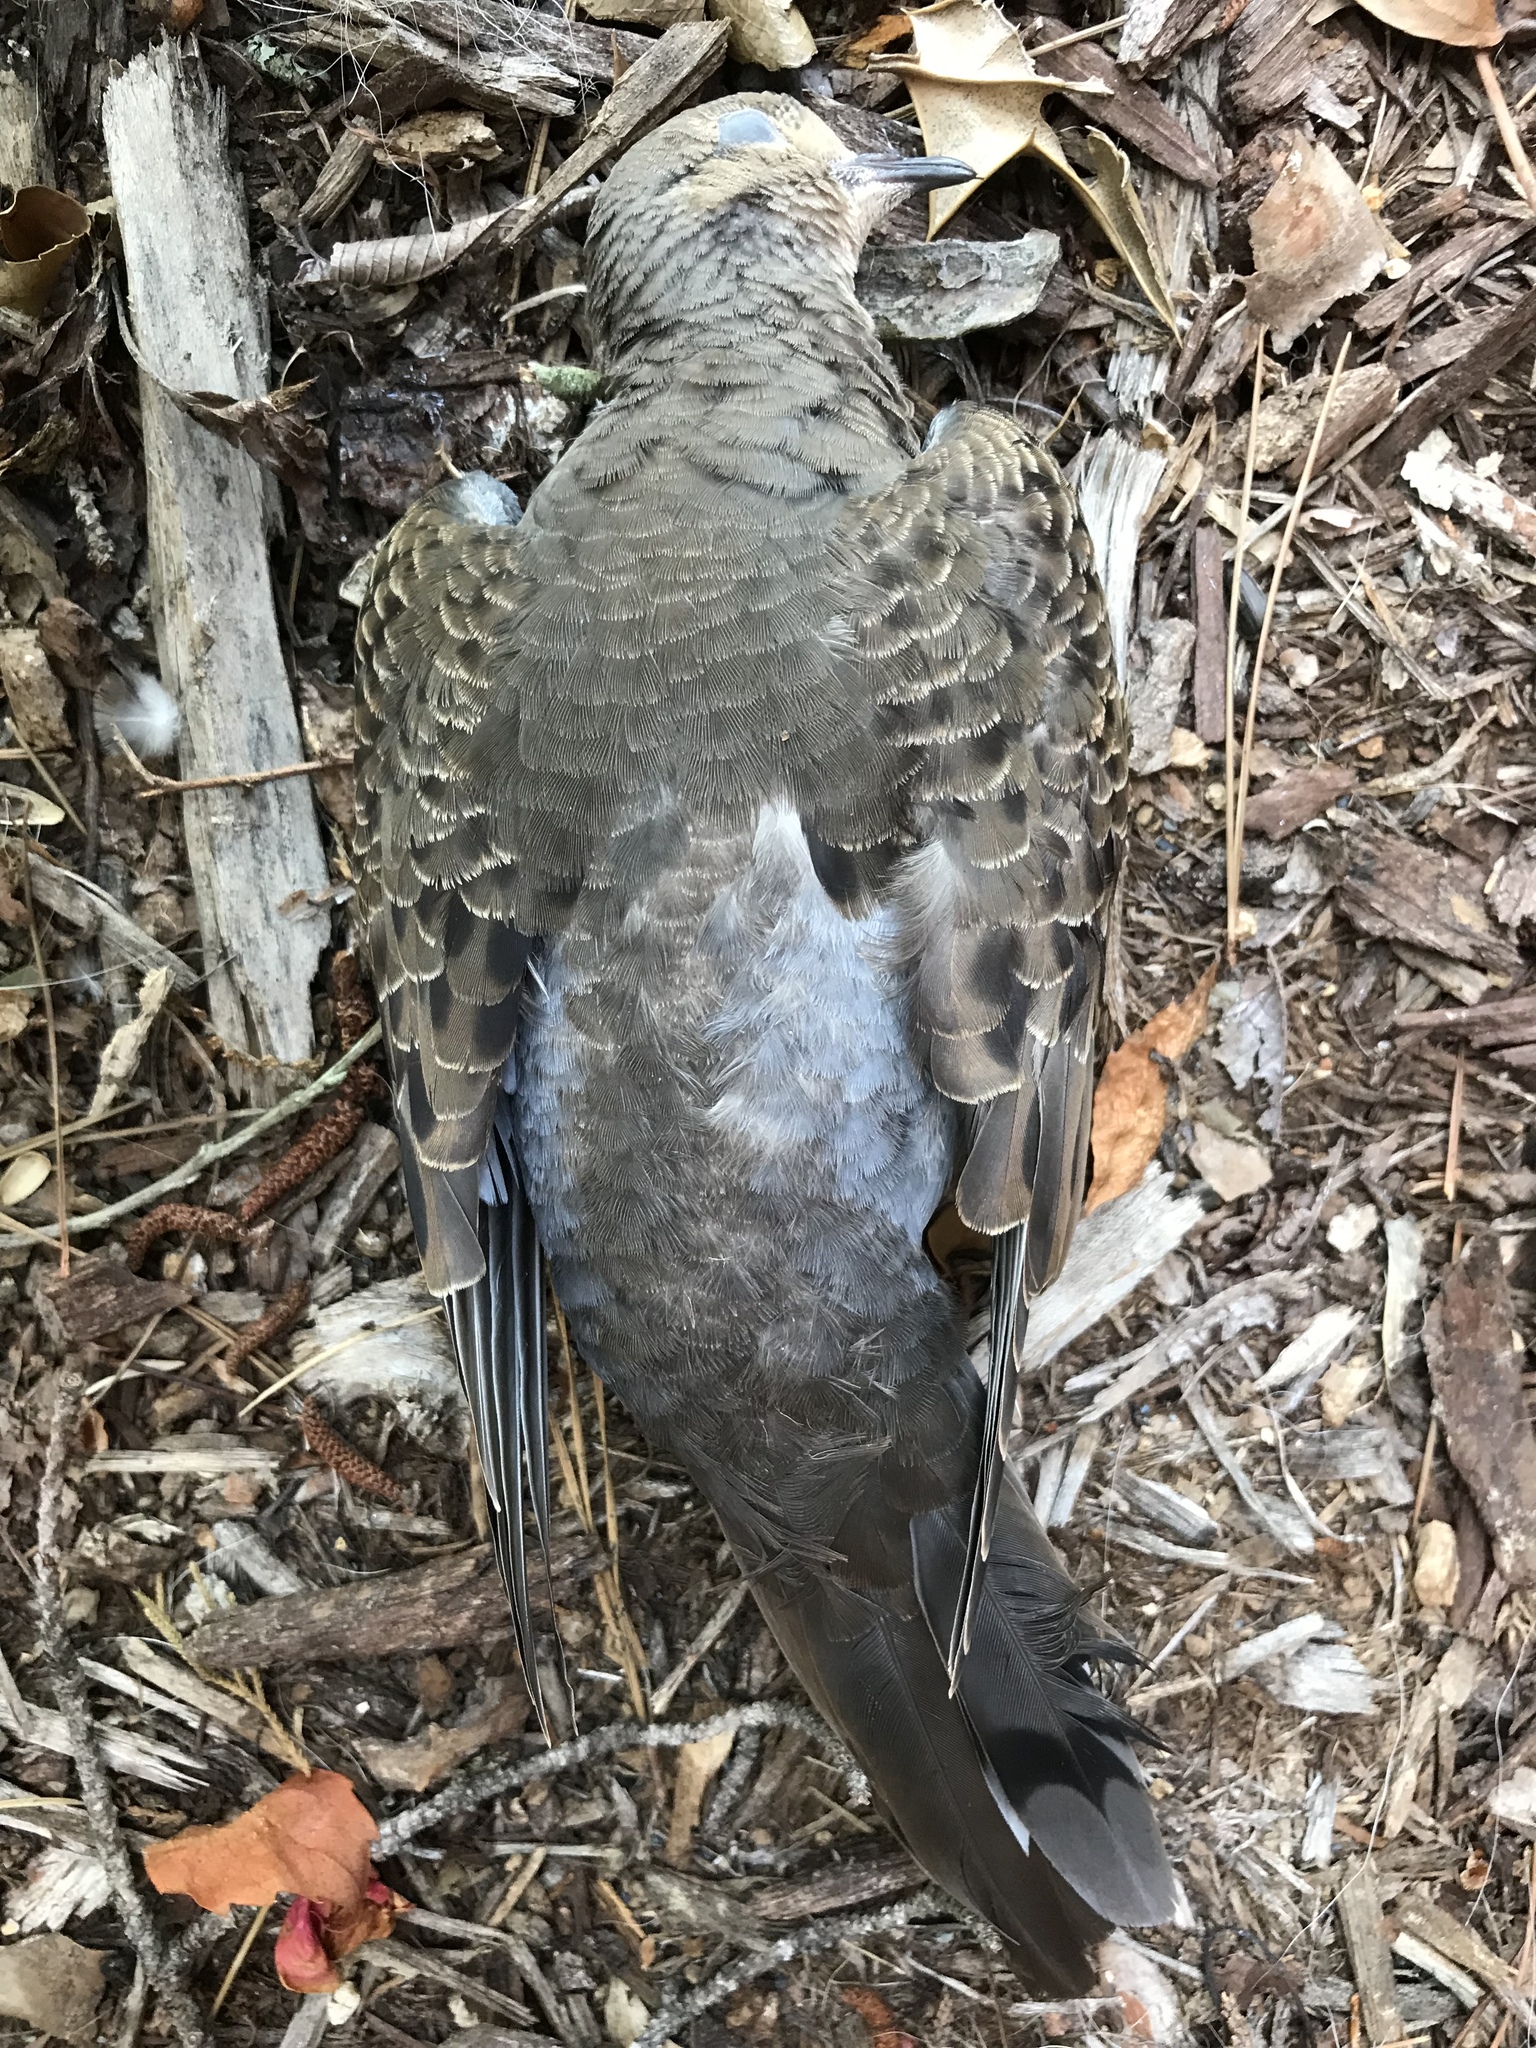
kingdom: Animalia
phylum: Chordata
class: Aves
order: Columbiformes
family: Columbidae
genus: Zenaida
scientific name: Zenaida macroura
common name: Mourning dove
